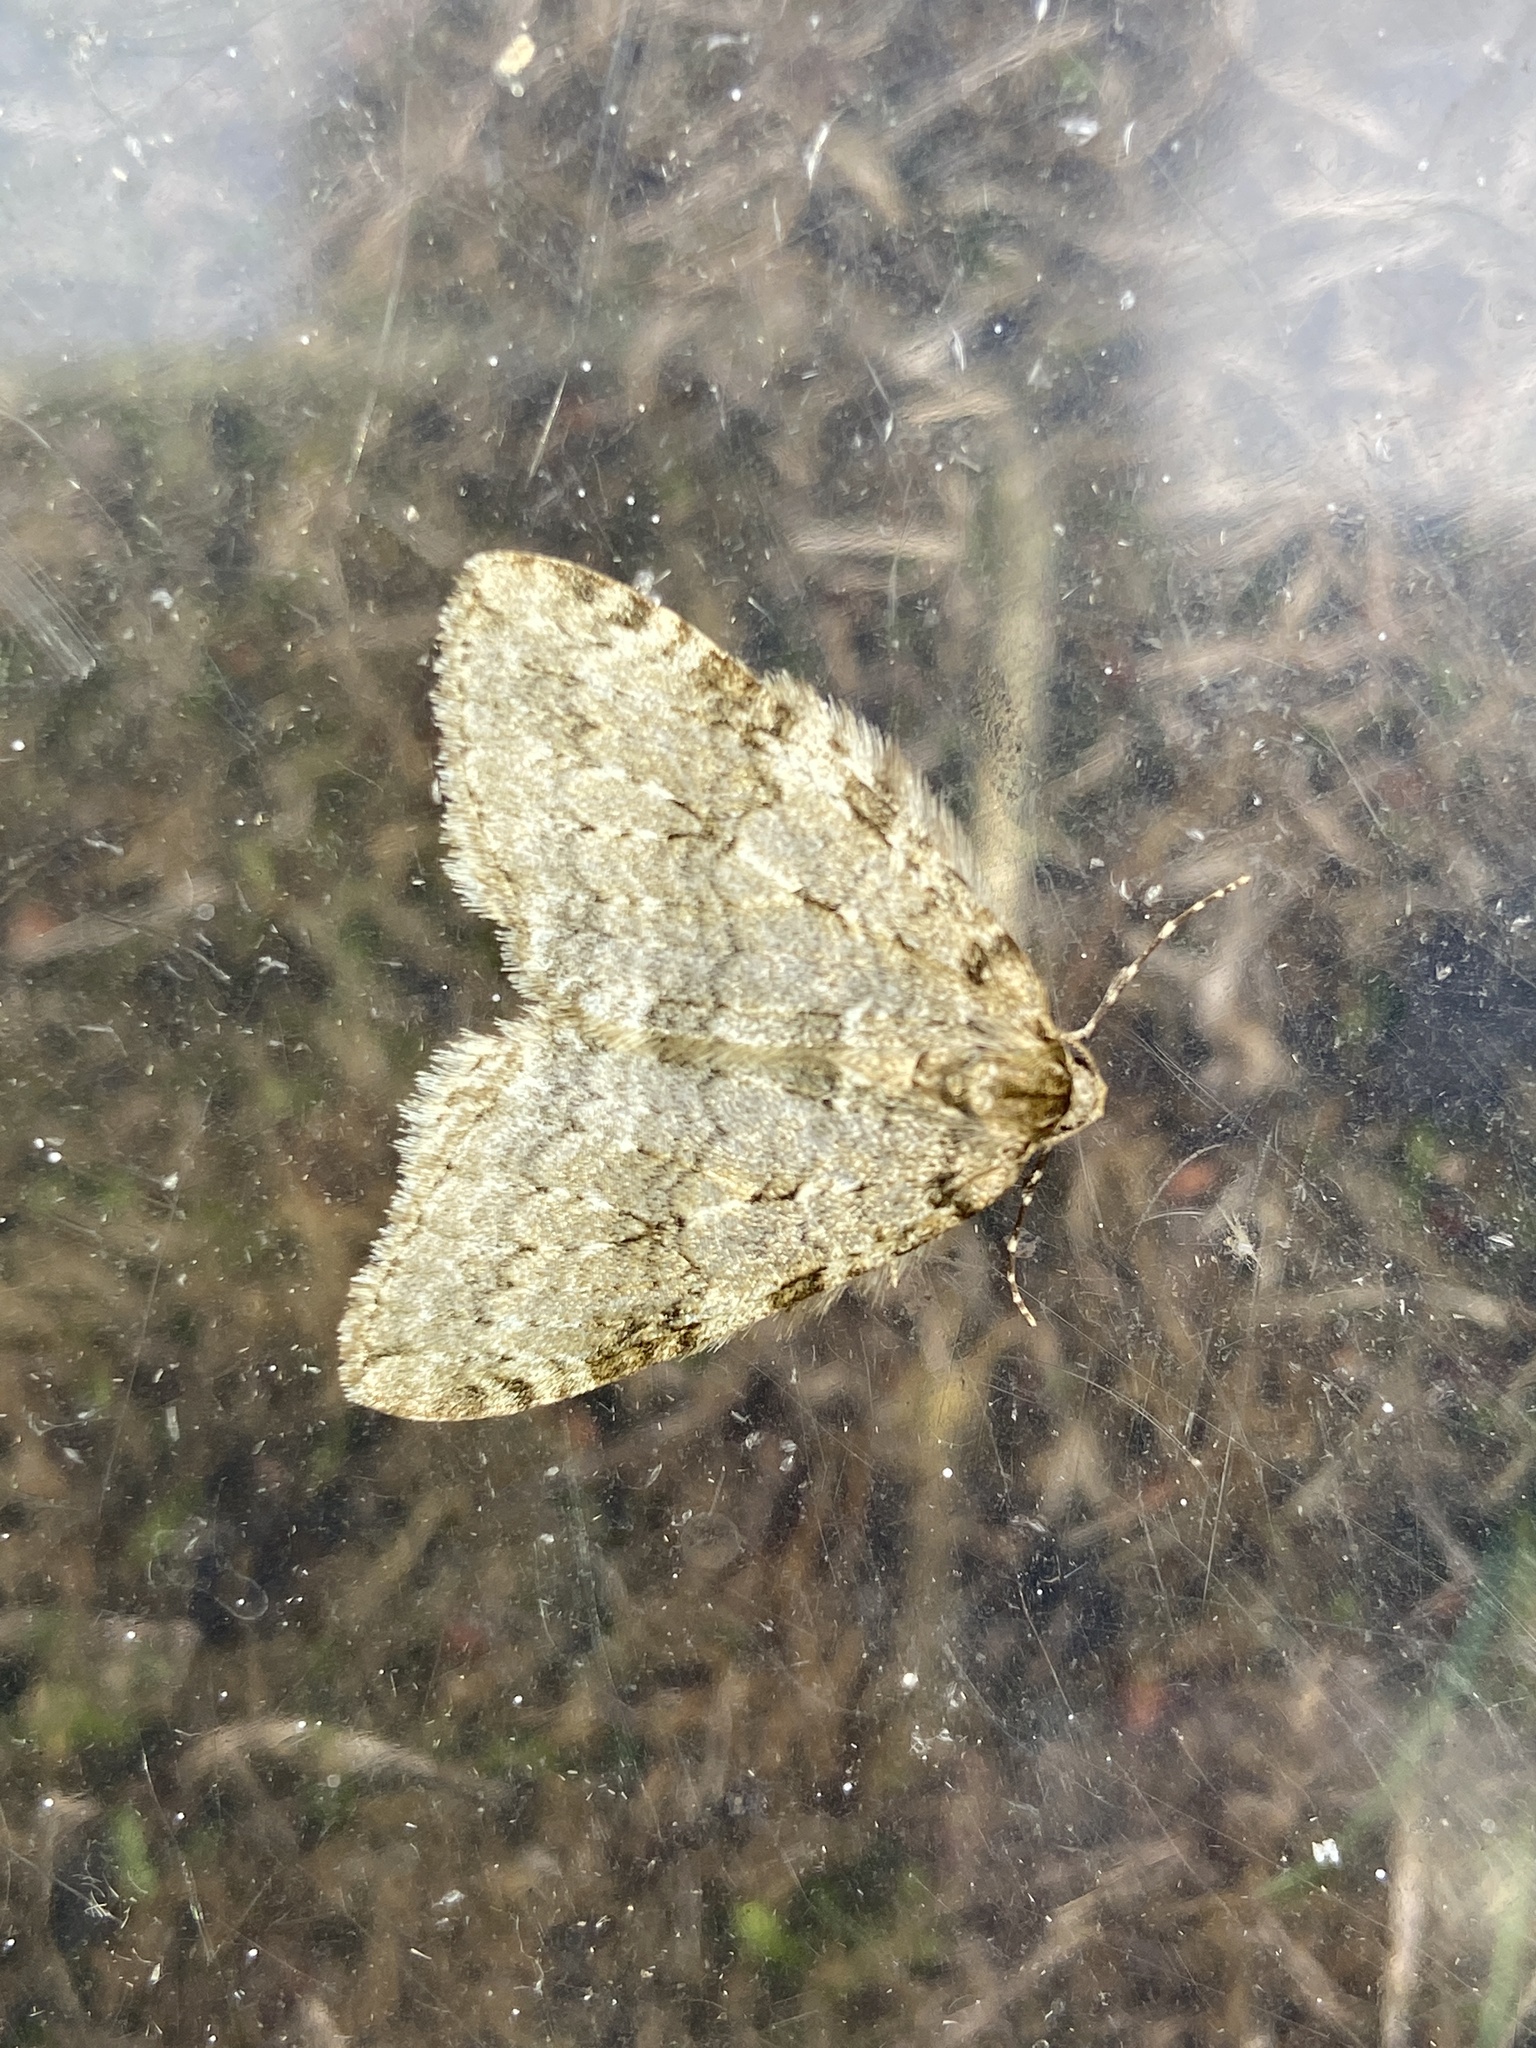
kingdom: Animalia
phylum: Arthropoda
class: Insecta
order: Lepidoptera
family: Geometridae
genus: Epirrita
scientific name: Epirrita
